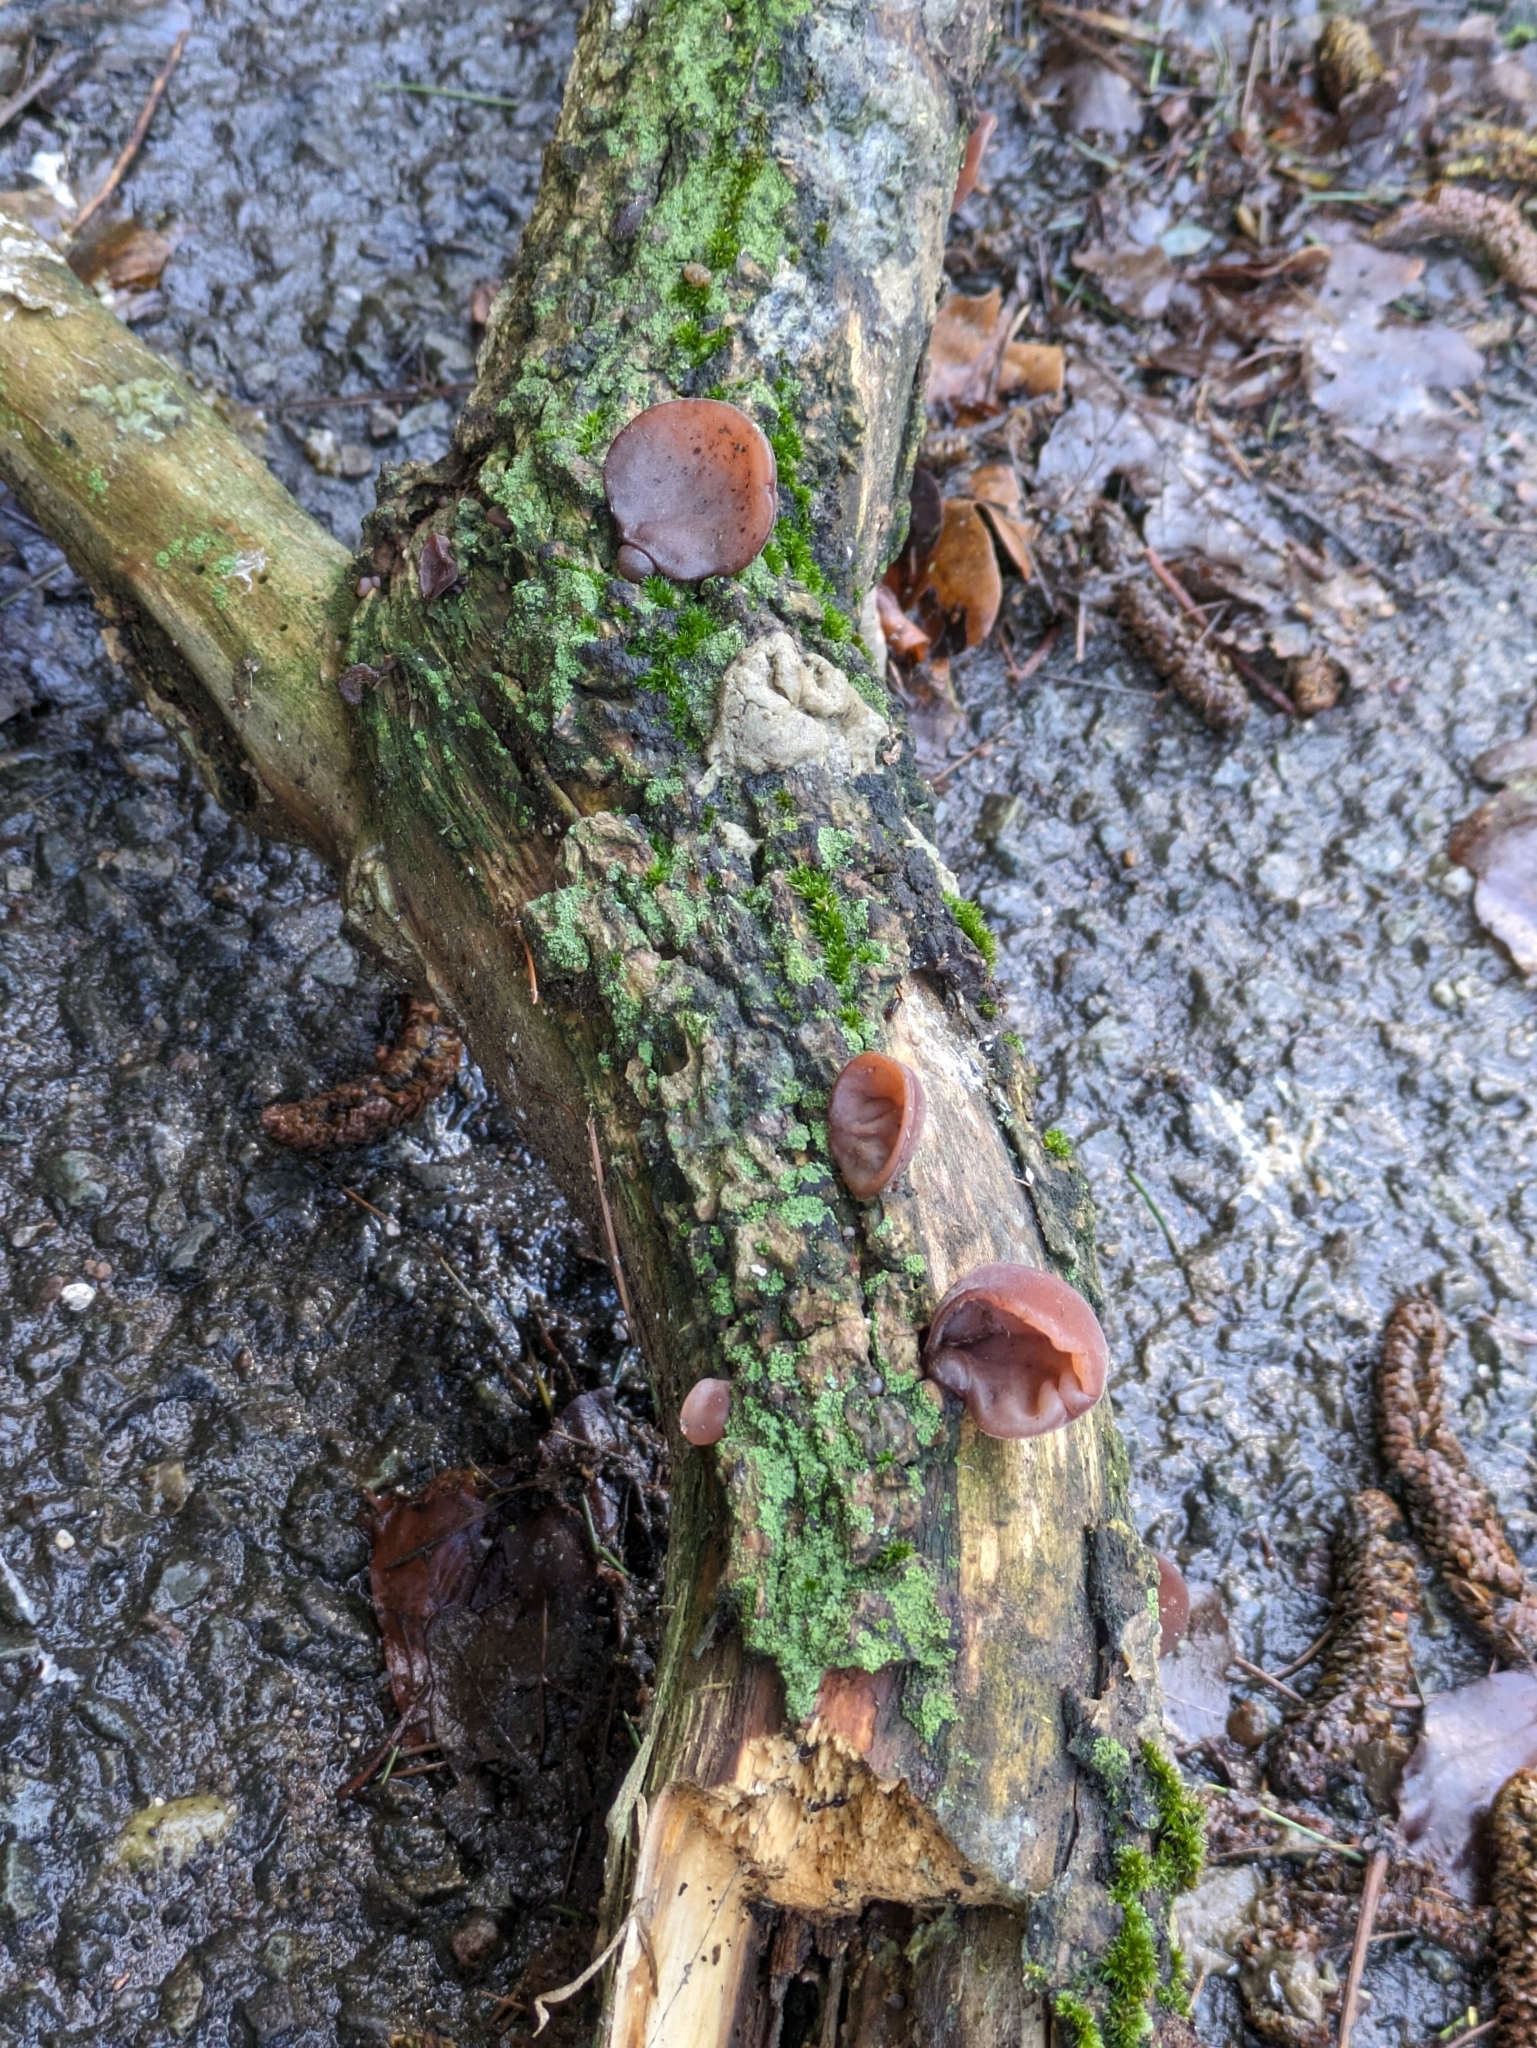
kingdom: Fungi
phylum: Basidiomycota
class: Agaricomycetes
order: Auriculariales
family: Auriculariaceae
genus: Auricularia
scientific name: Auricularia auricula-judae
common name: Jelly ear
